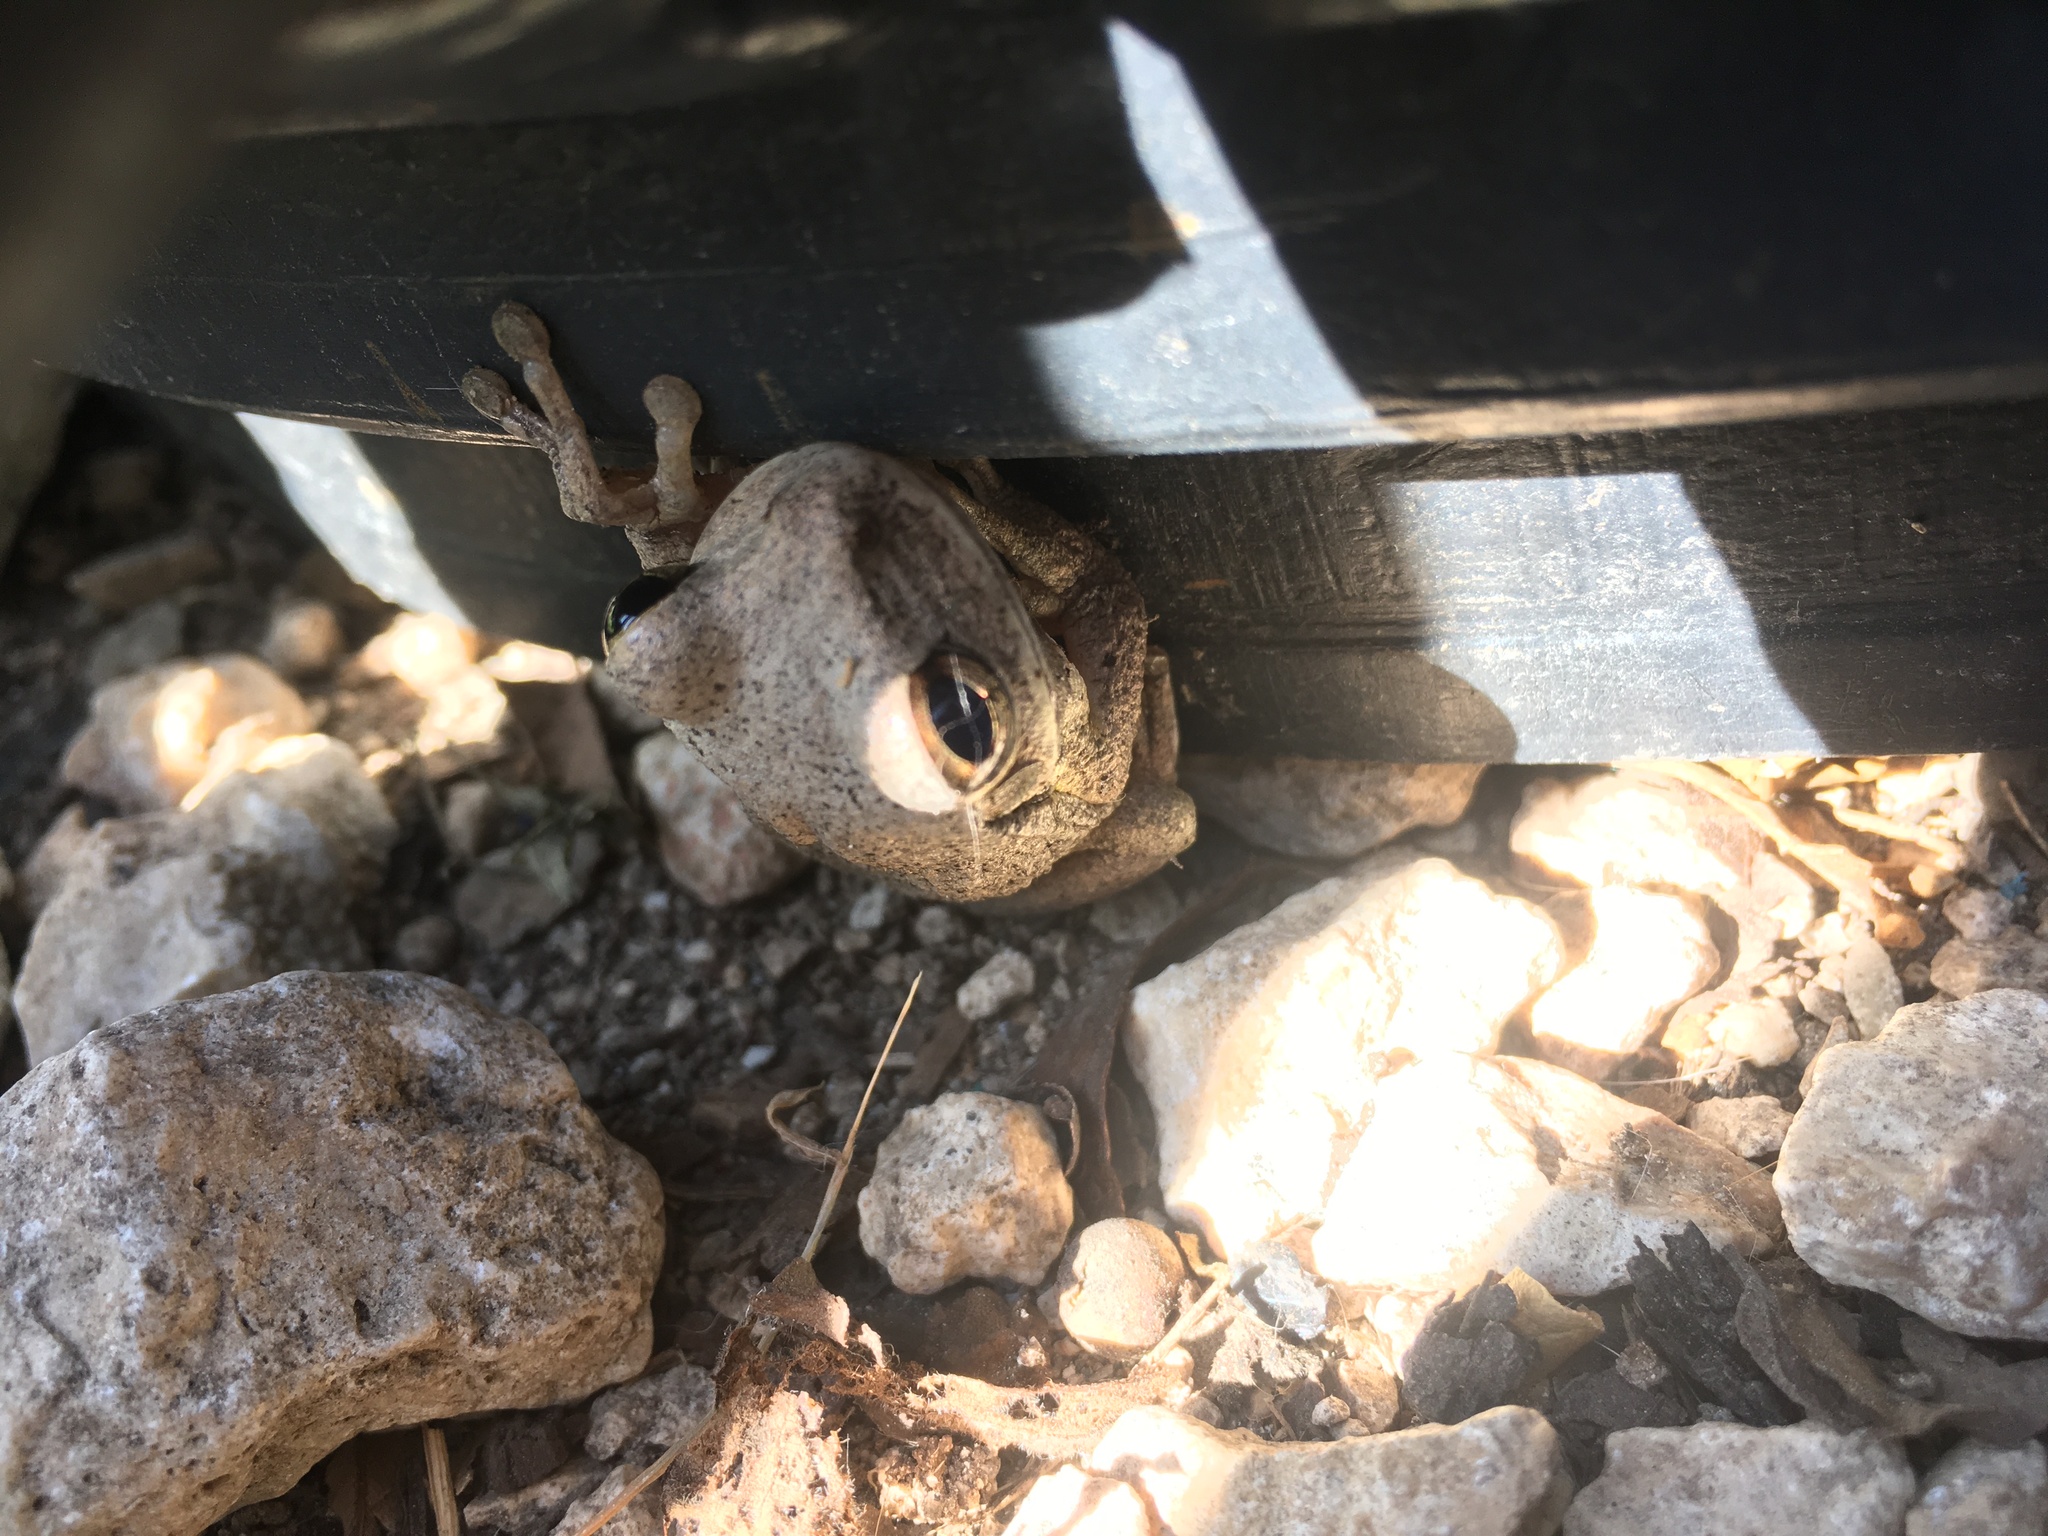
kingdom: Animalia
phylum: Chordata
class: Amphibia
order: Anura
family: Hylidae
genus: Smilisca
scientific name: Smilisca baudinii
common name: Mexican smilisca
